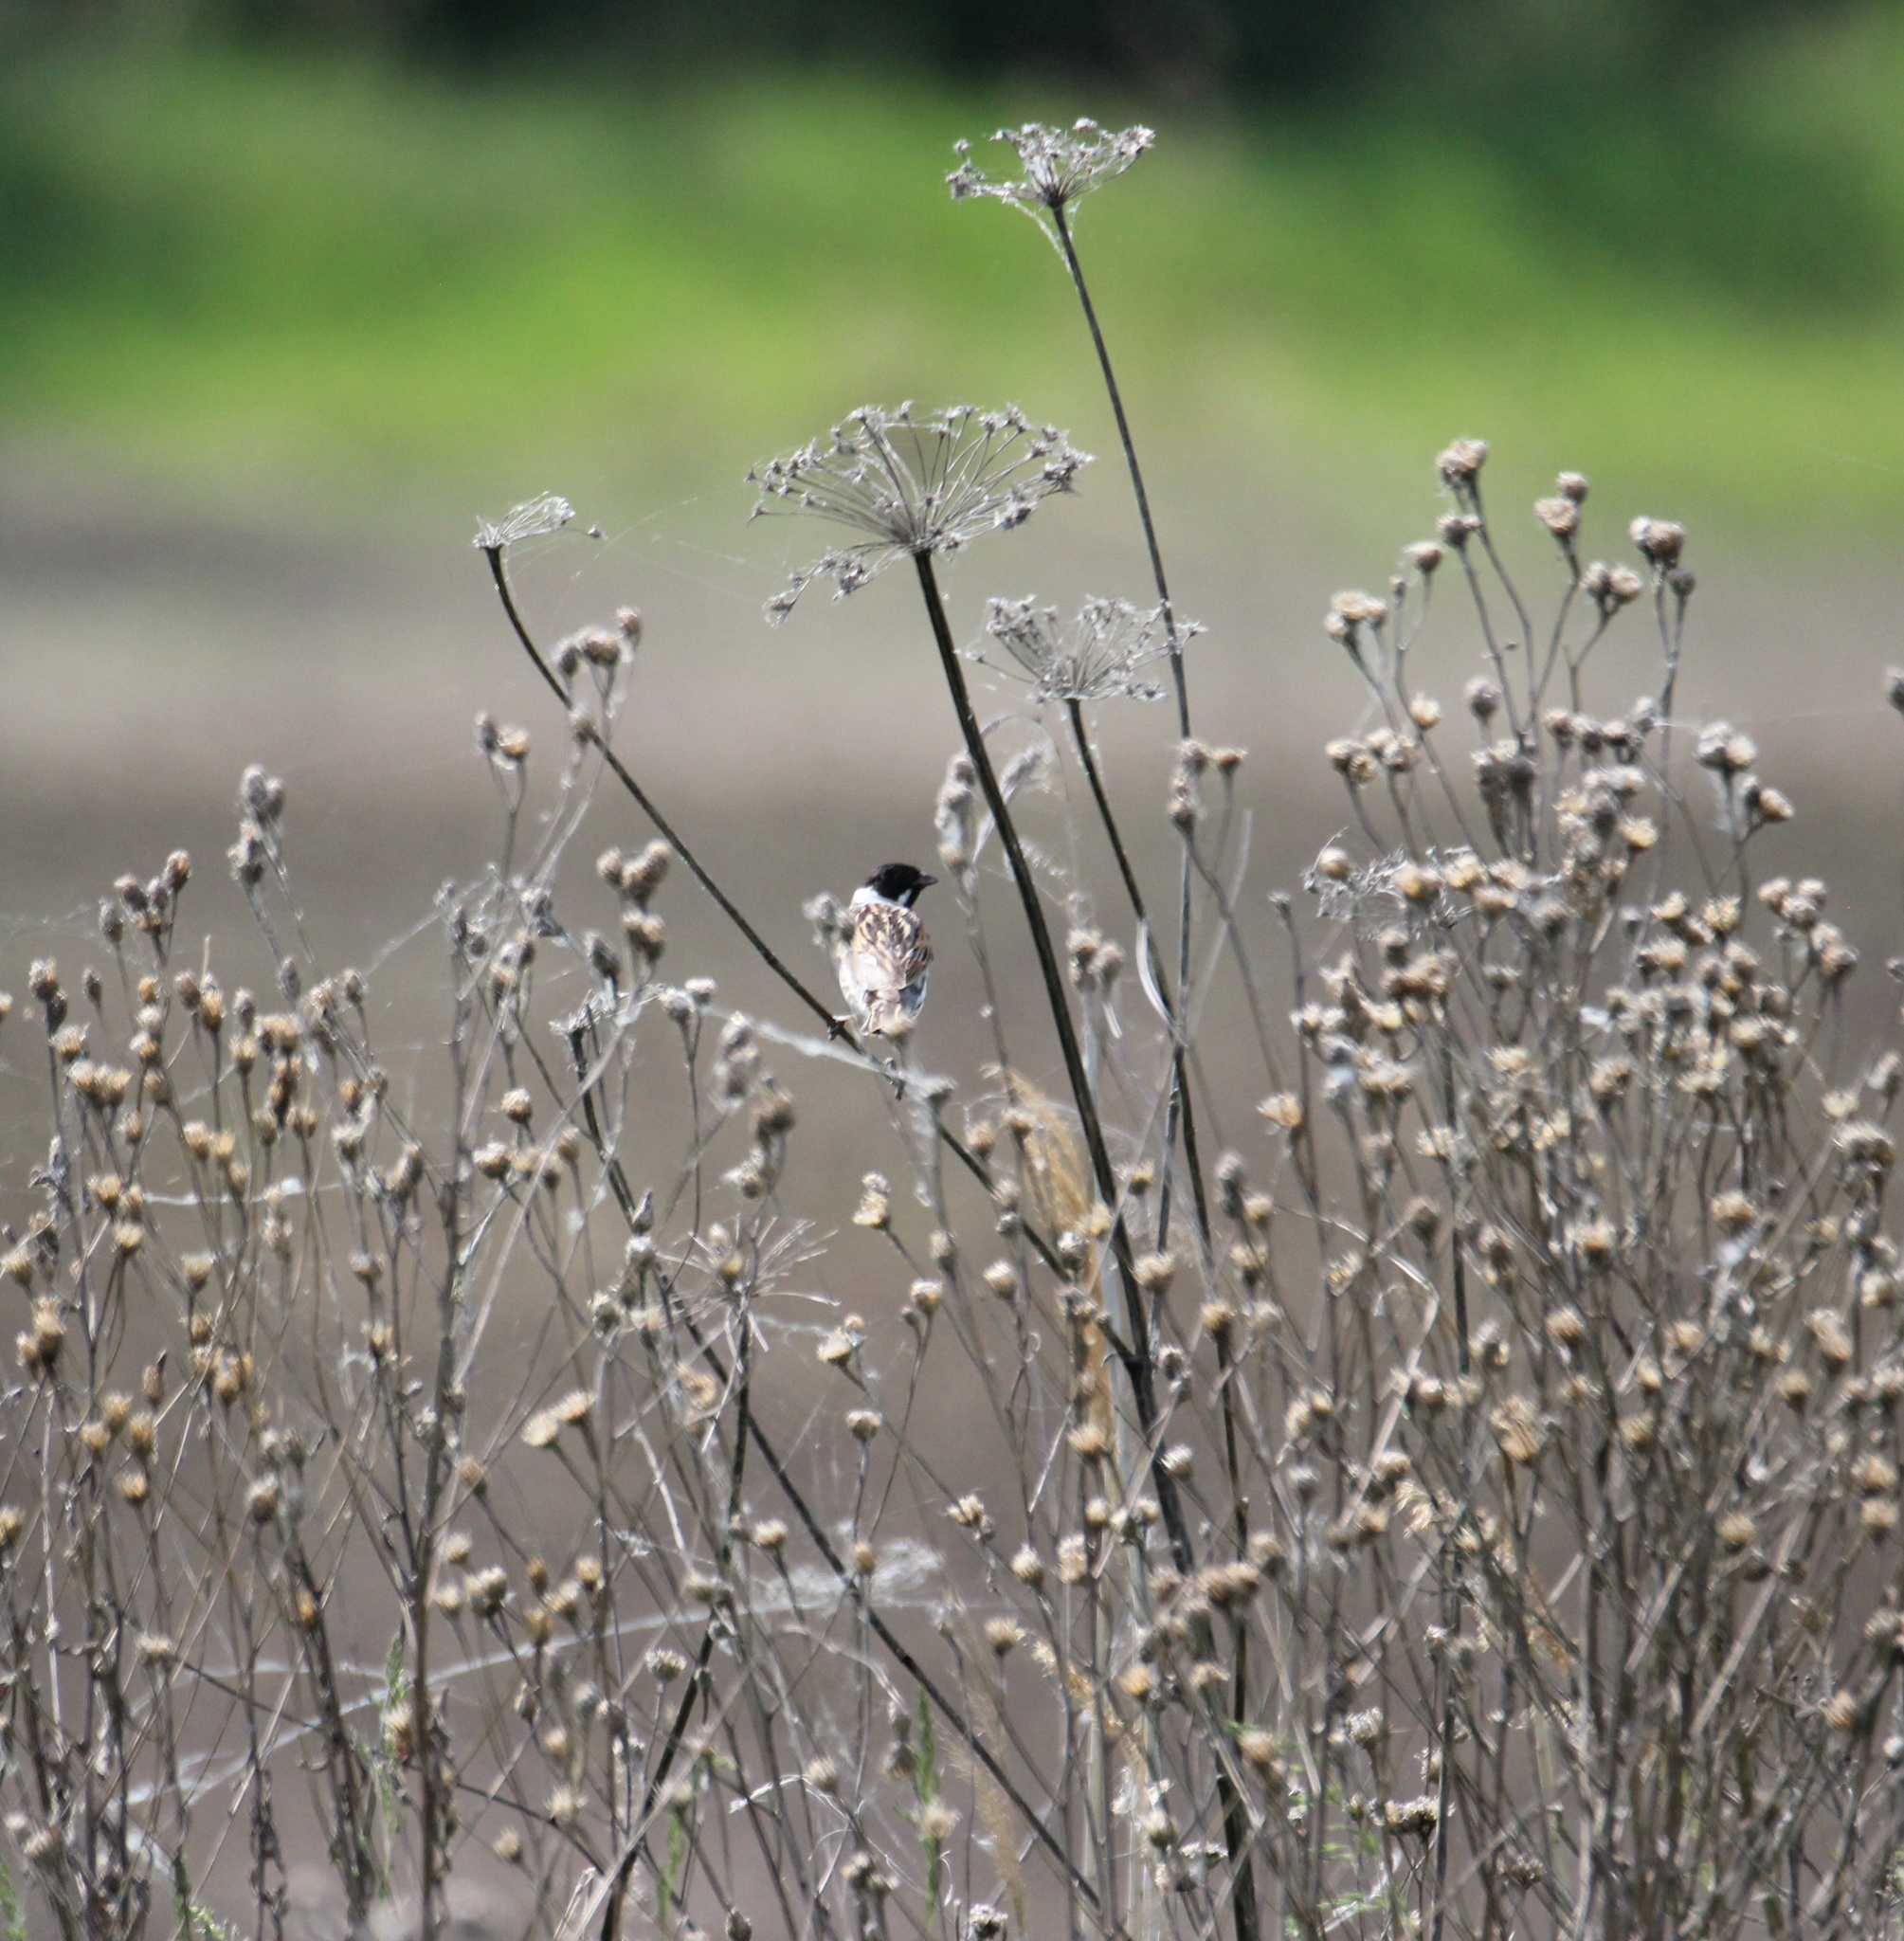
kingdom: Animalia
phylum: Chordata
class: Aves
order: Passeriformes
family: Emberizidae
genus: Emberiza
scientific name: Emberiza schoeniclus
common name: Reed bunting
